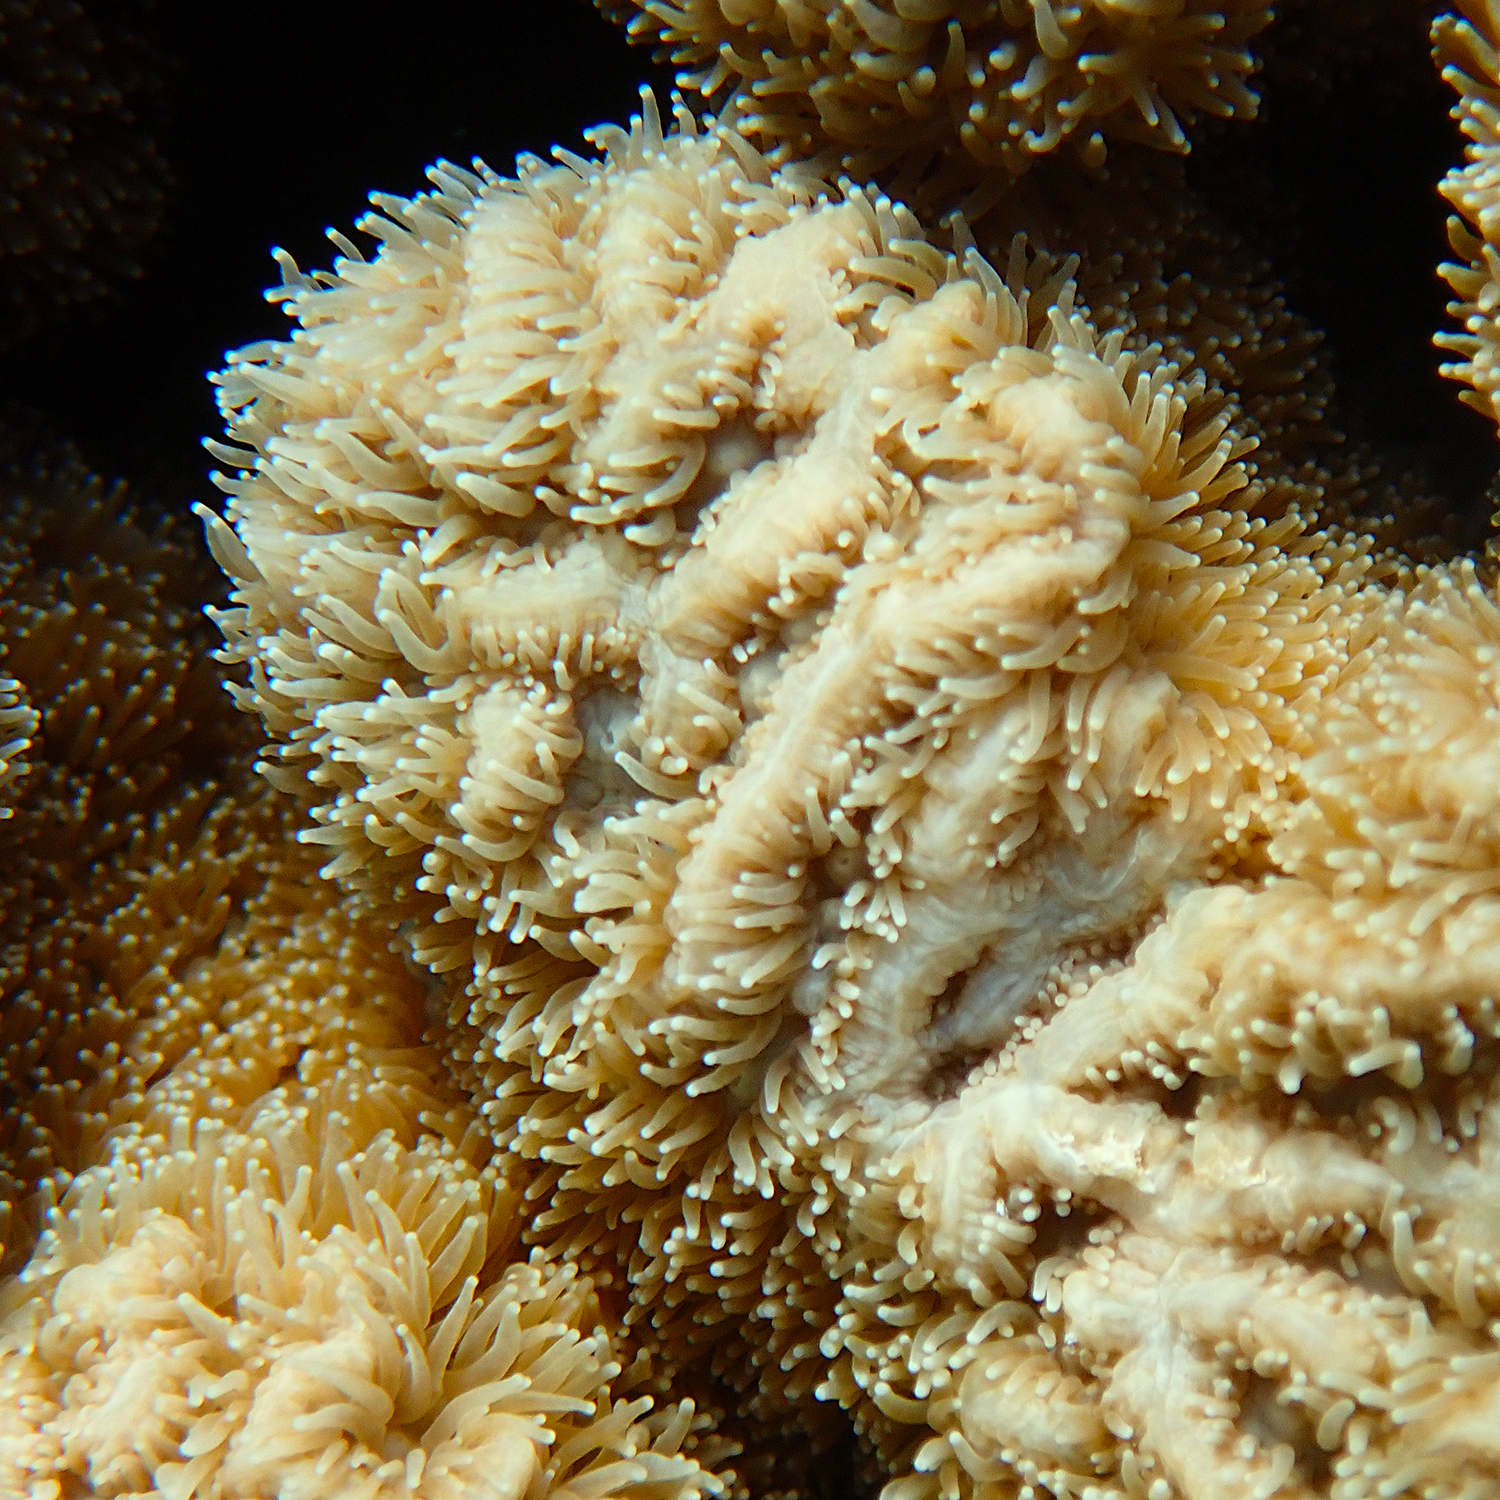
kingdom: Animalia
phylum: Cnidaria
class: Anthozoa
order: Scleractinia
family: Merulinidae
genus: Hydnophora
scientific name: Hydnophora pilosa
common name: Spine coral
